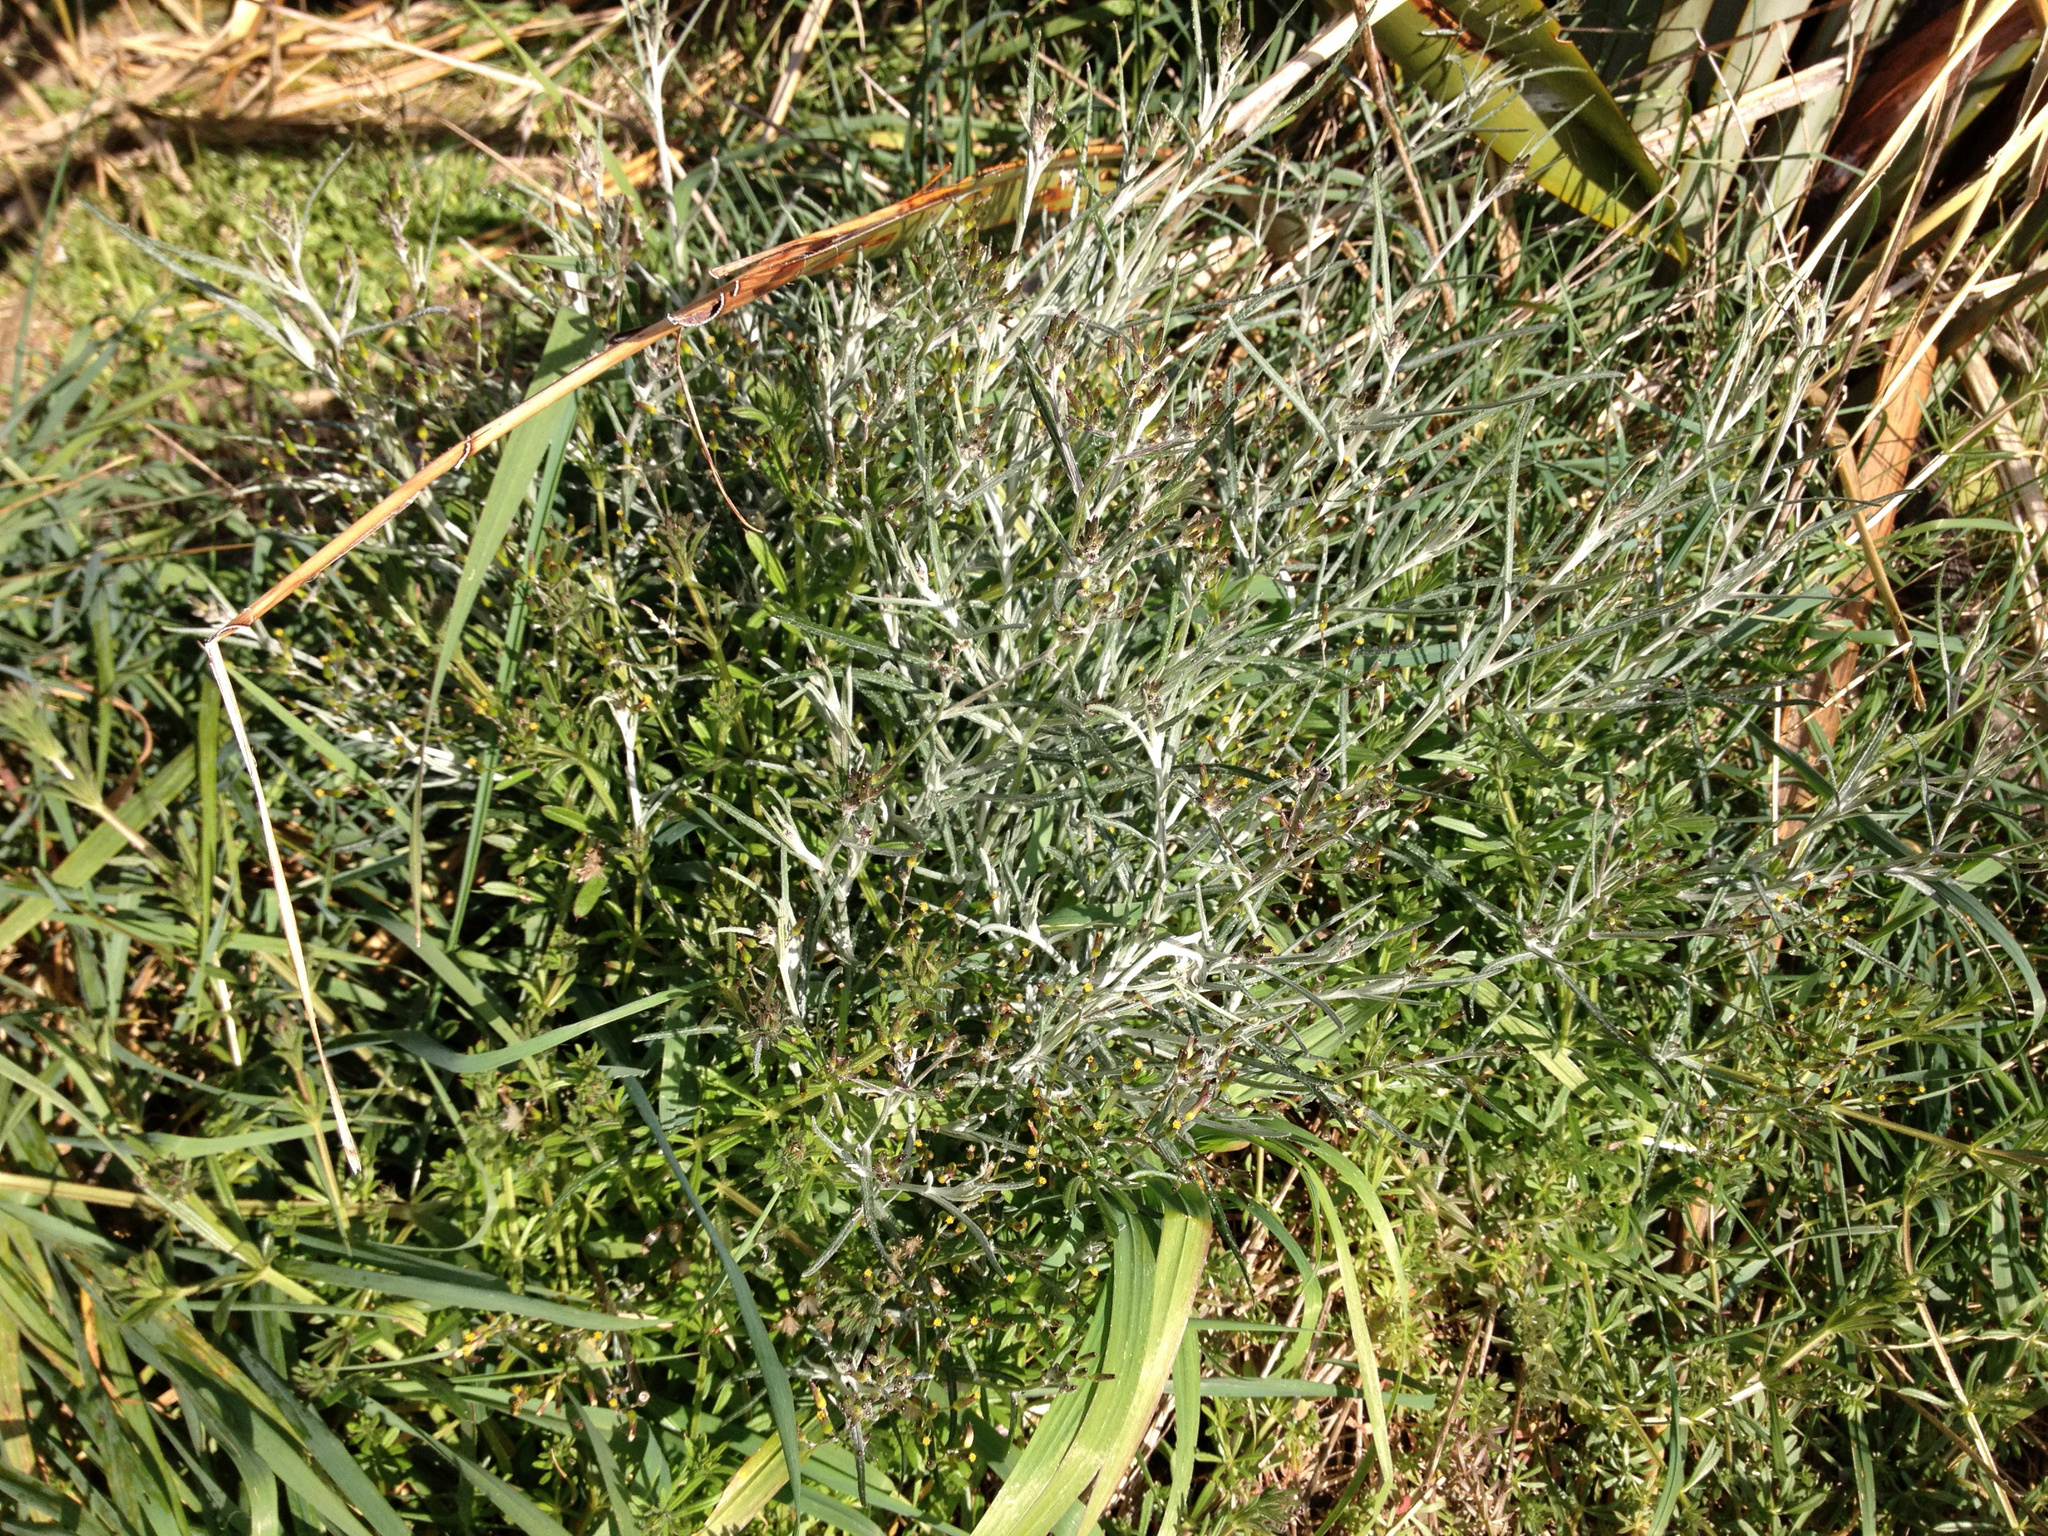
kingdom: Plantae
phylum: Tracheophyta
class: Magnoliopsida
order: Asterales
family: Asteraceae
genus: Senecio
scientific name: Senecio quadridentatus
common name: Cotton fireweed
